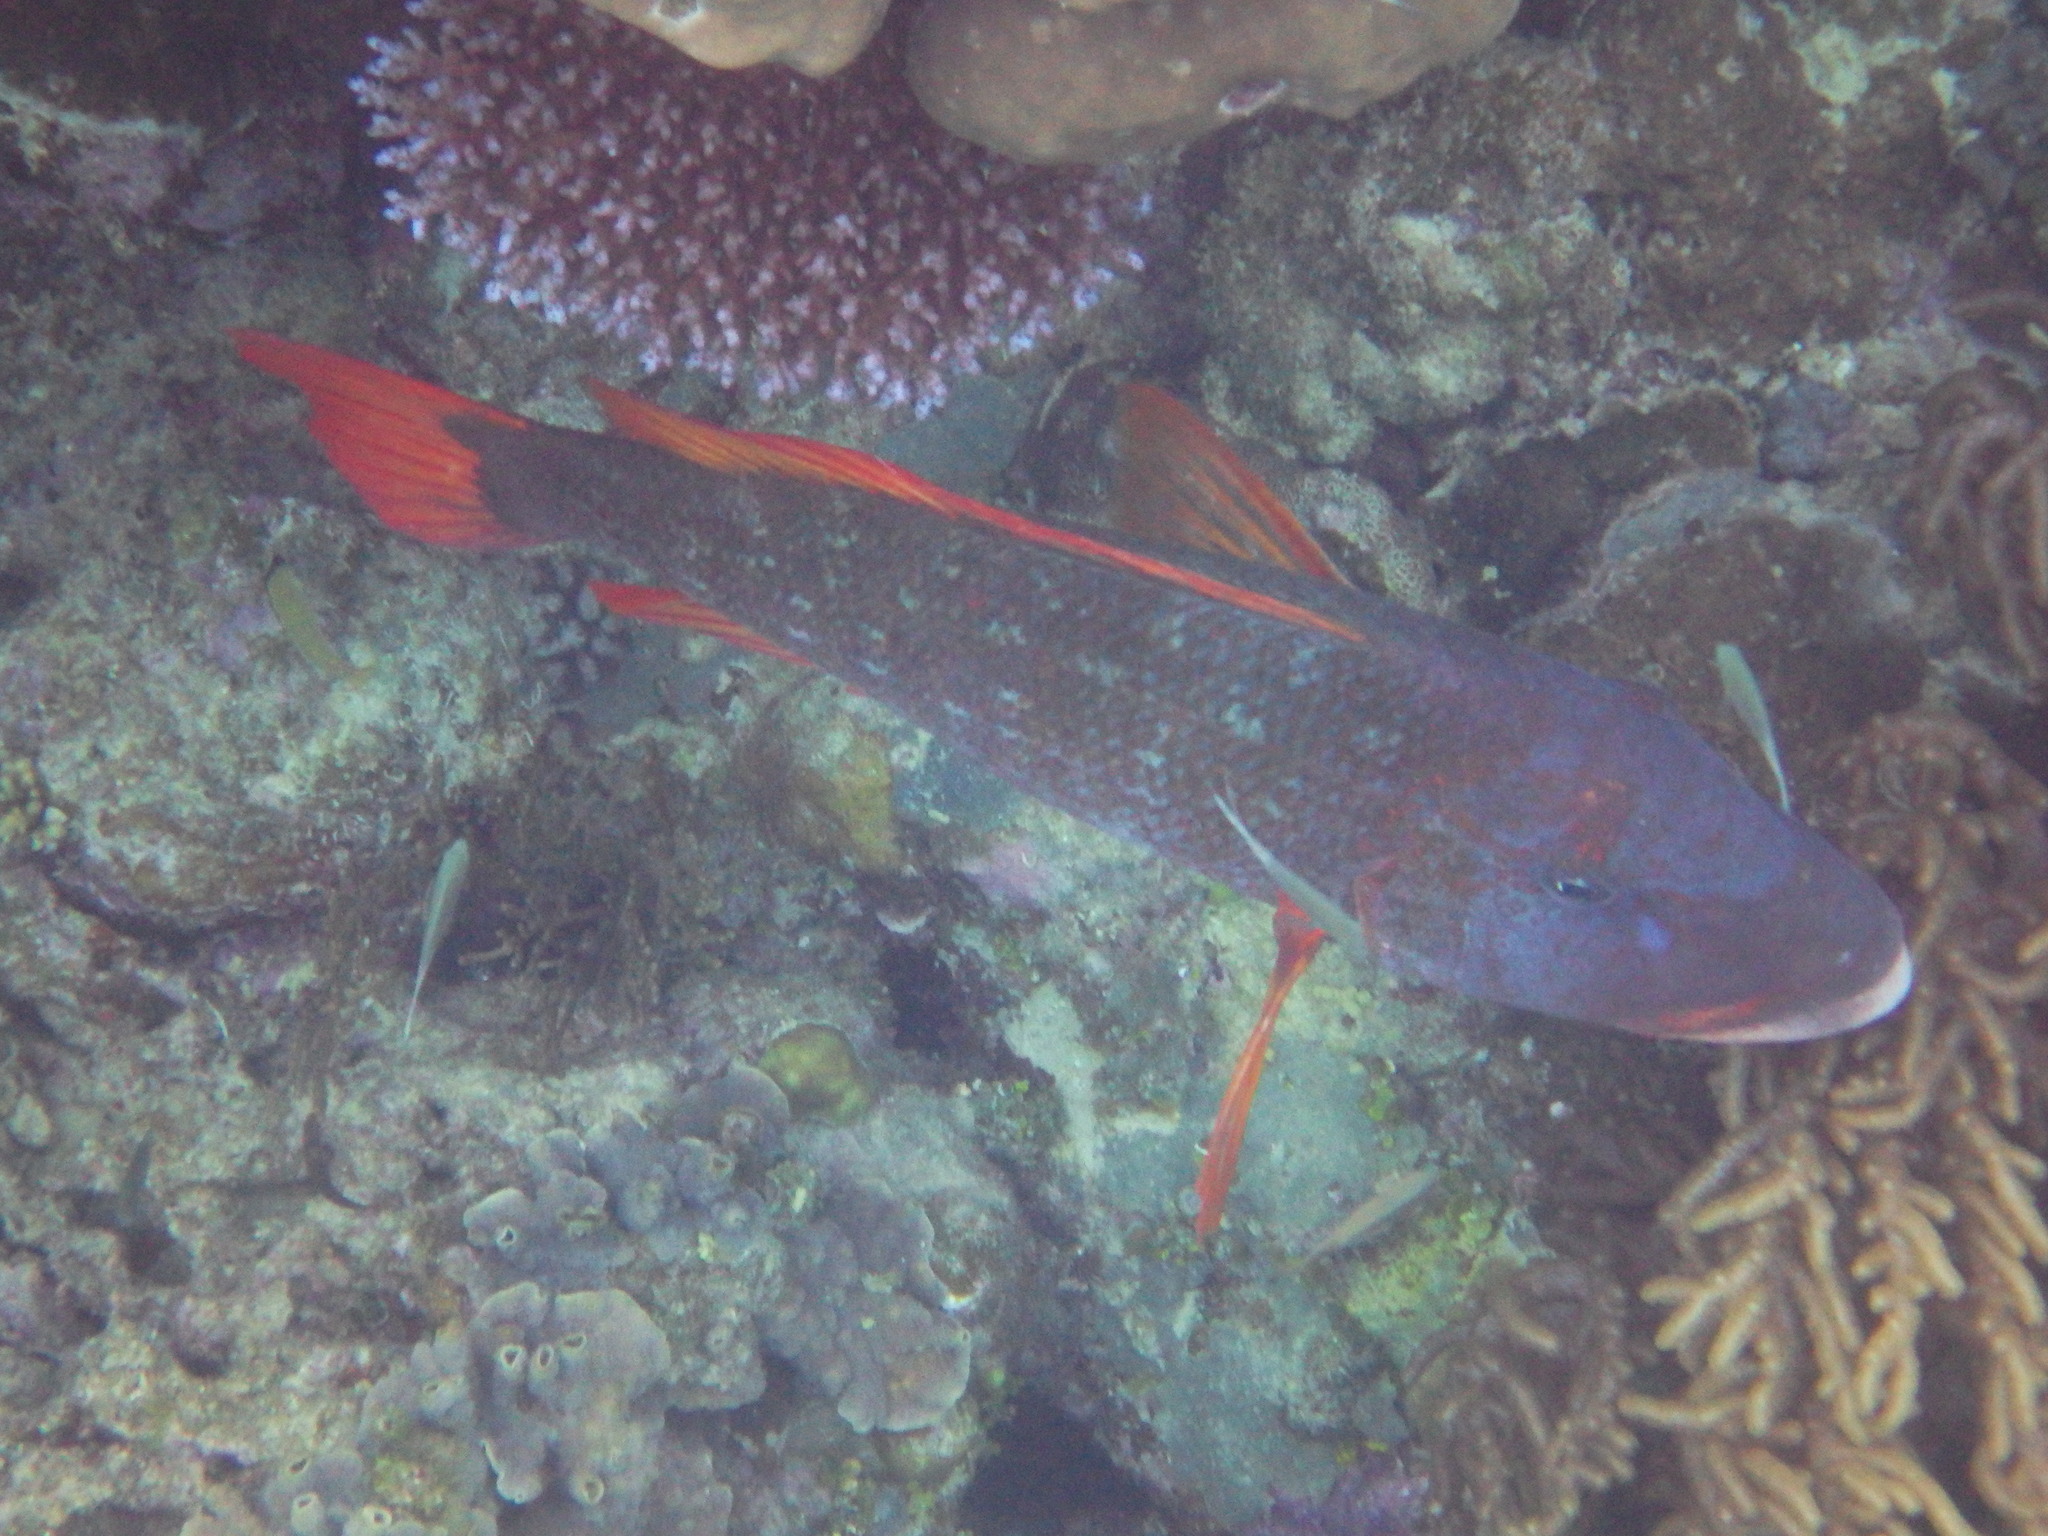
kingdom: Animalia
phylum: Chordata
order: Perciformes
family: Lethrinidae
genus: Lethrinus
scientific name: Lethrinus erythracanthus
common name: Orange-spotted emperor
